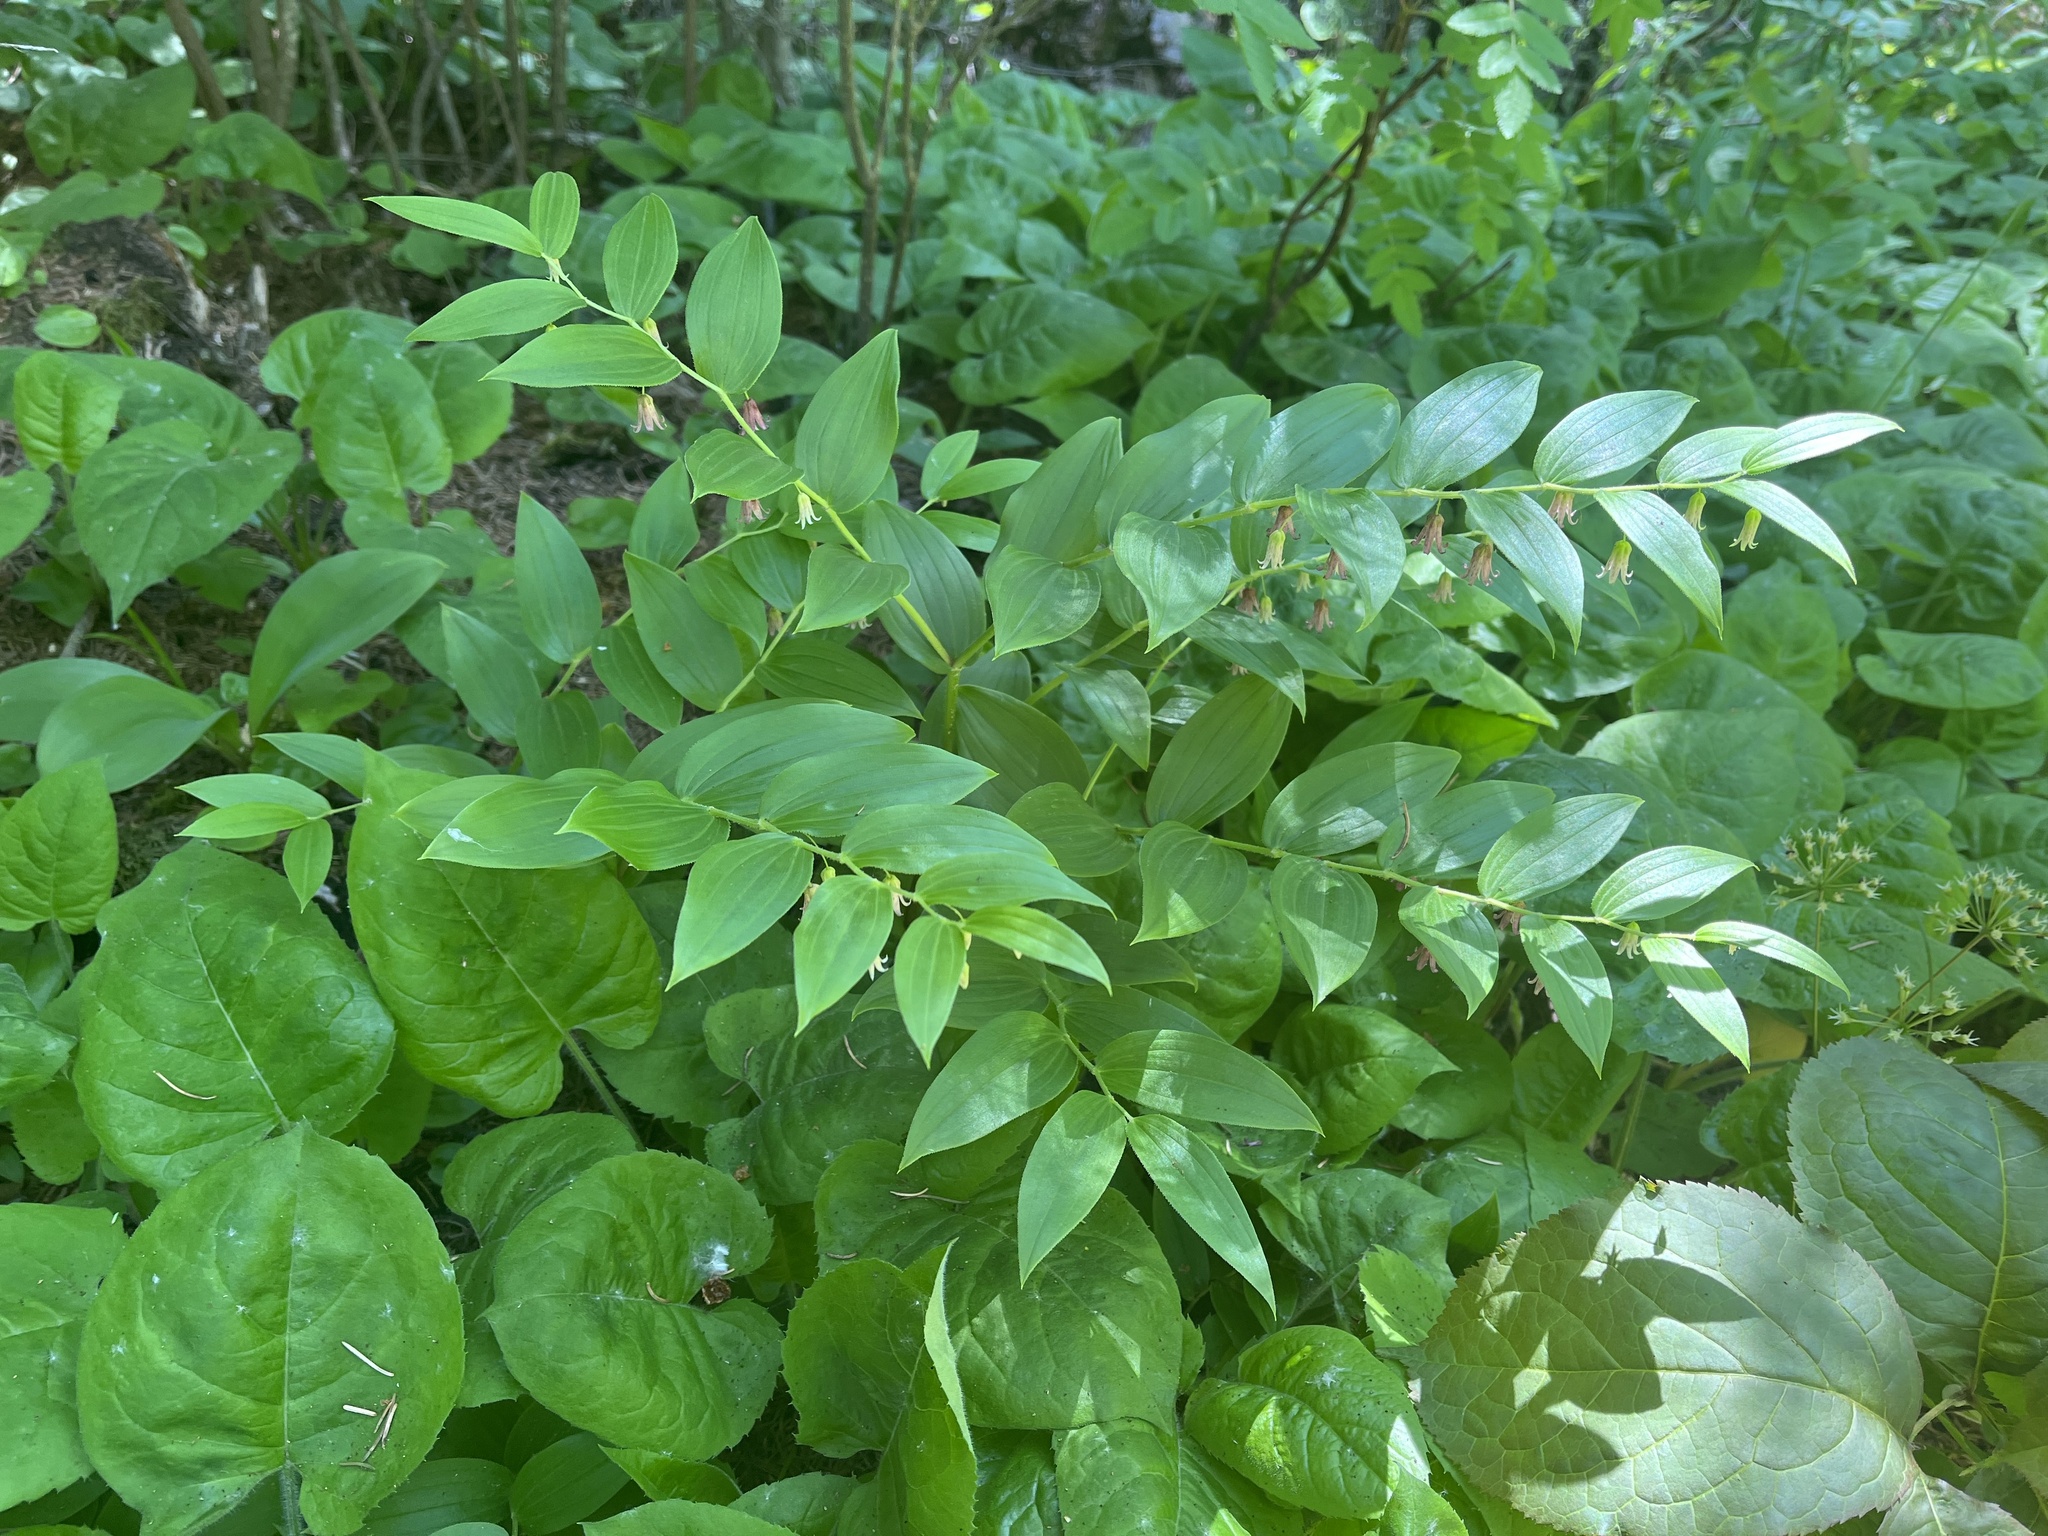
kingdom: Plantae
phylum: Tracheophyta
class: Liliopsida
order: Liliales
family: Liliaceae
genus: Streptopus
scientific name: Streptopus lanceolatus
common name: Rose mandarin
